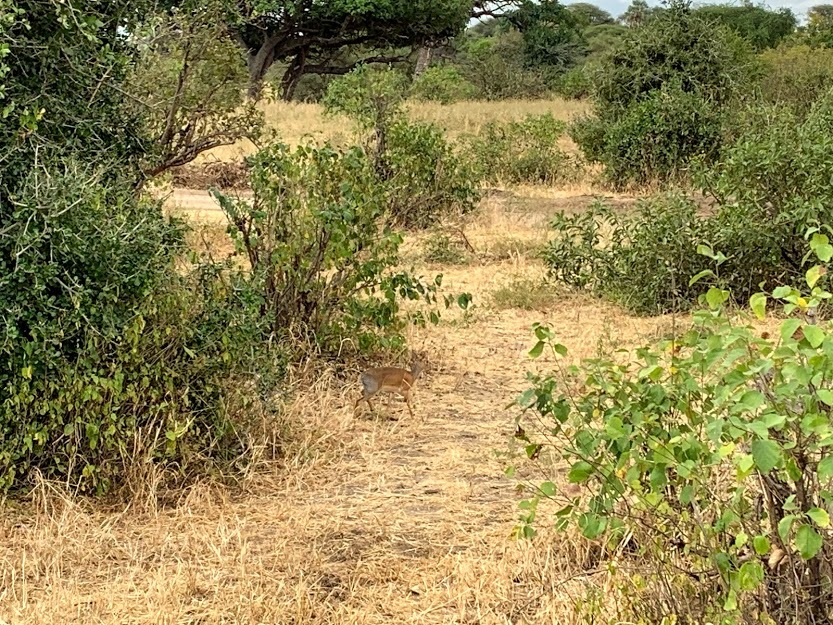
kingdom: Animalia
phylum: Chordata
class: Mammalia
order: Artiodactyla
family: Bovidae
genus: Madoqua
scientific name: Madoqua
